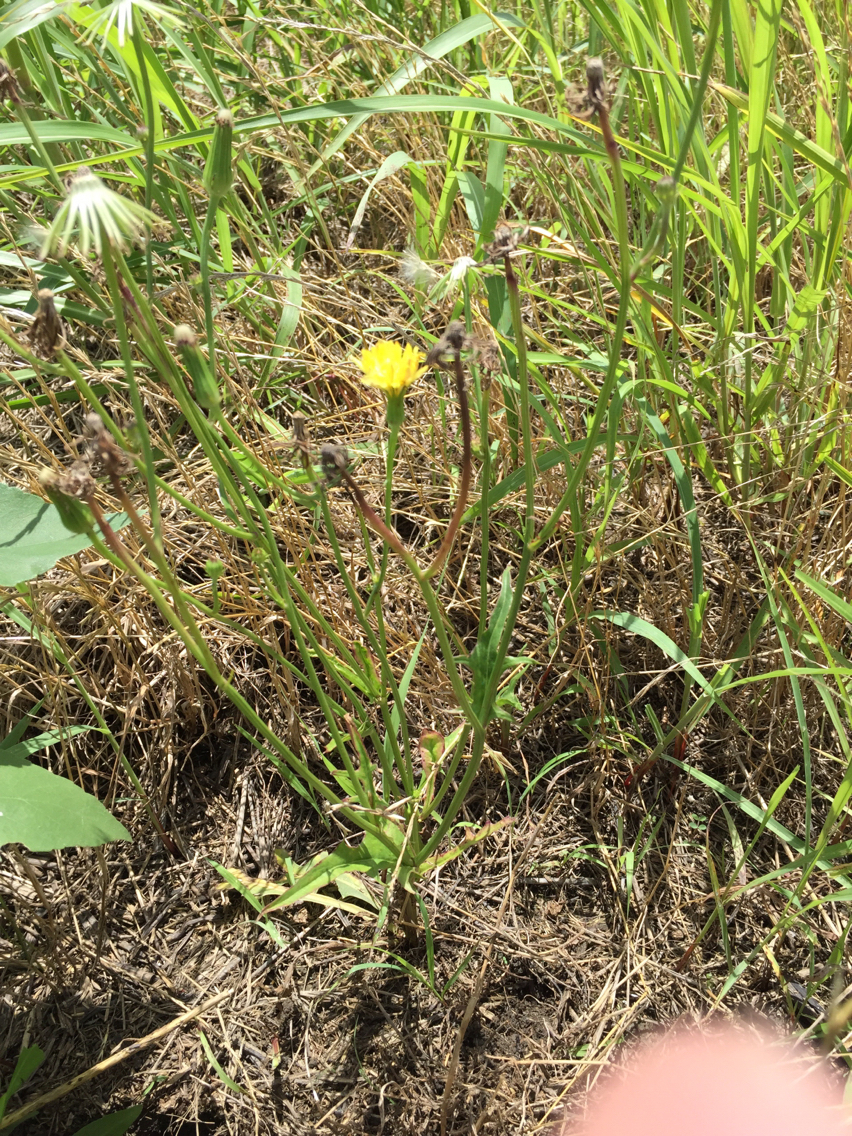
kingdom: Plantae
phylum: Tracheophyta
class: Magnoliopsida
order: Asterales
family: Asteraceae
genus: Pyrrhopappus
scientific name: Pyrrhopappus carolinianus
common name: Carolina desert-chicory
